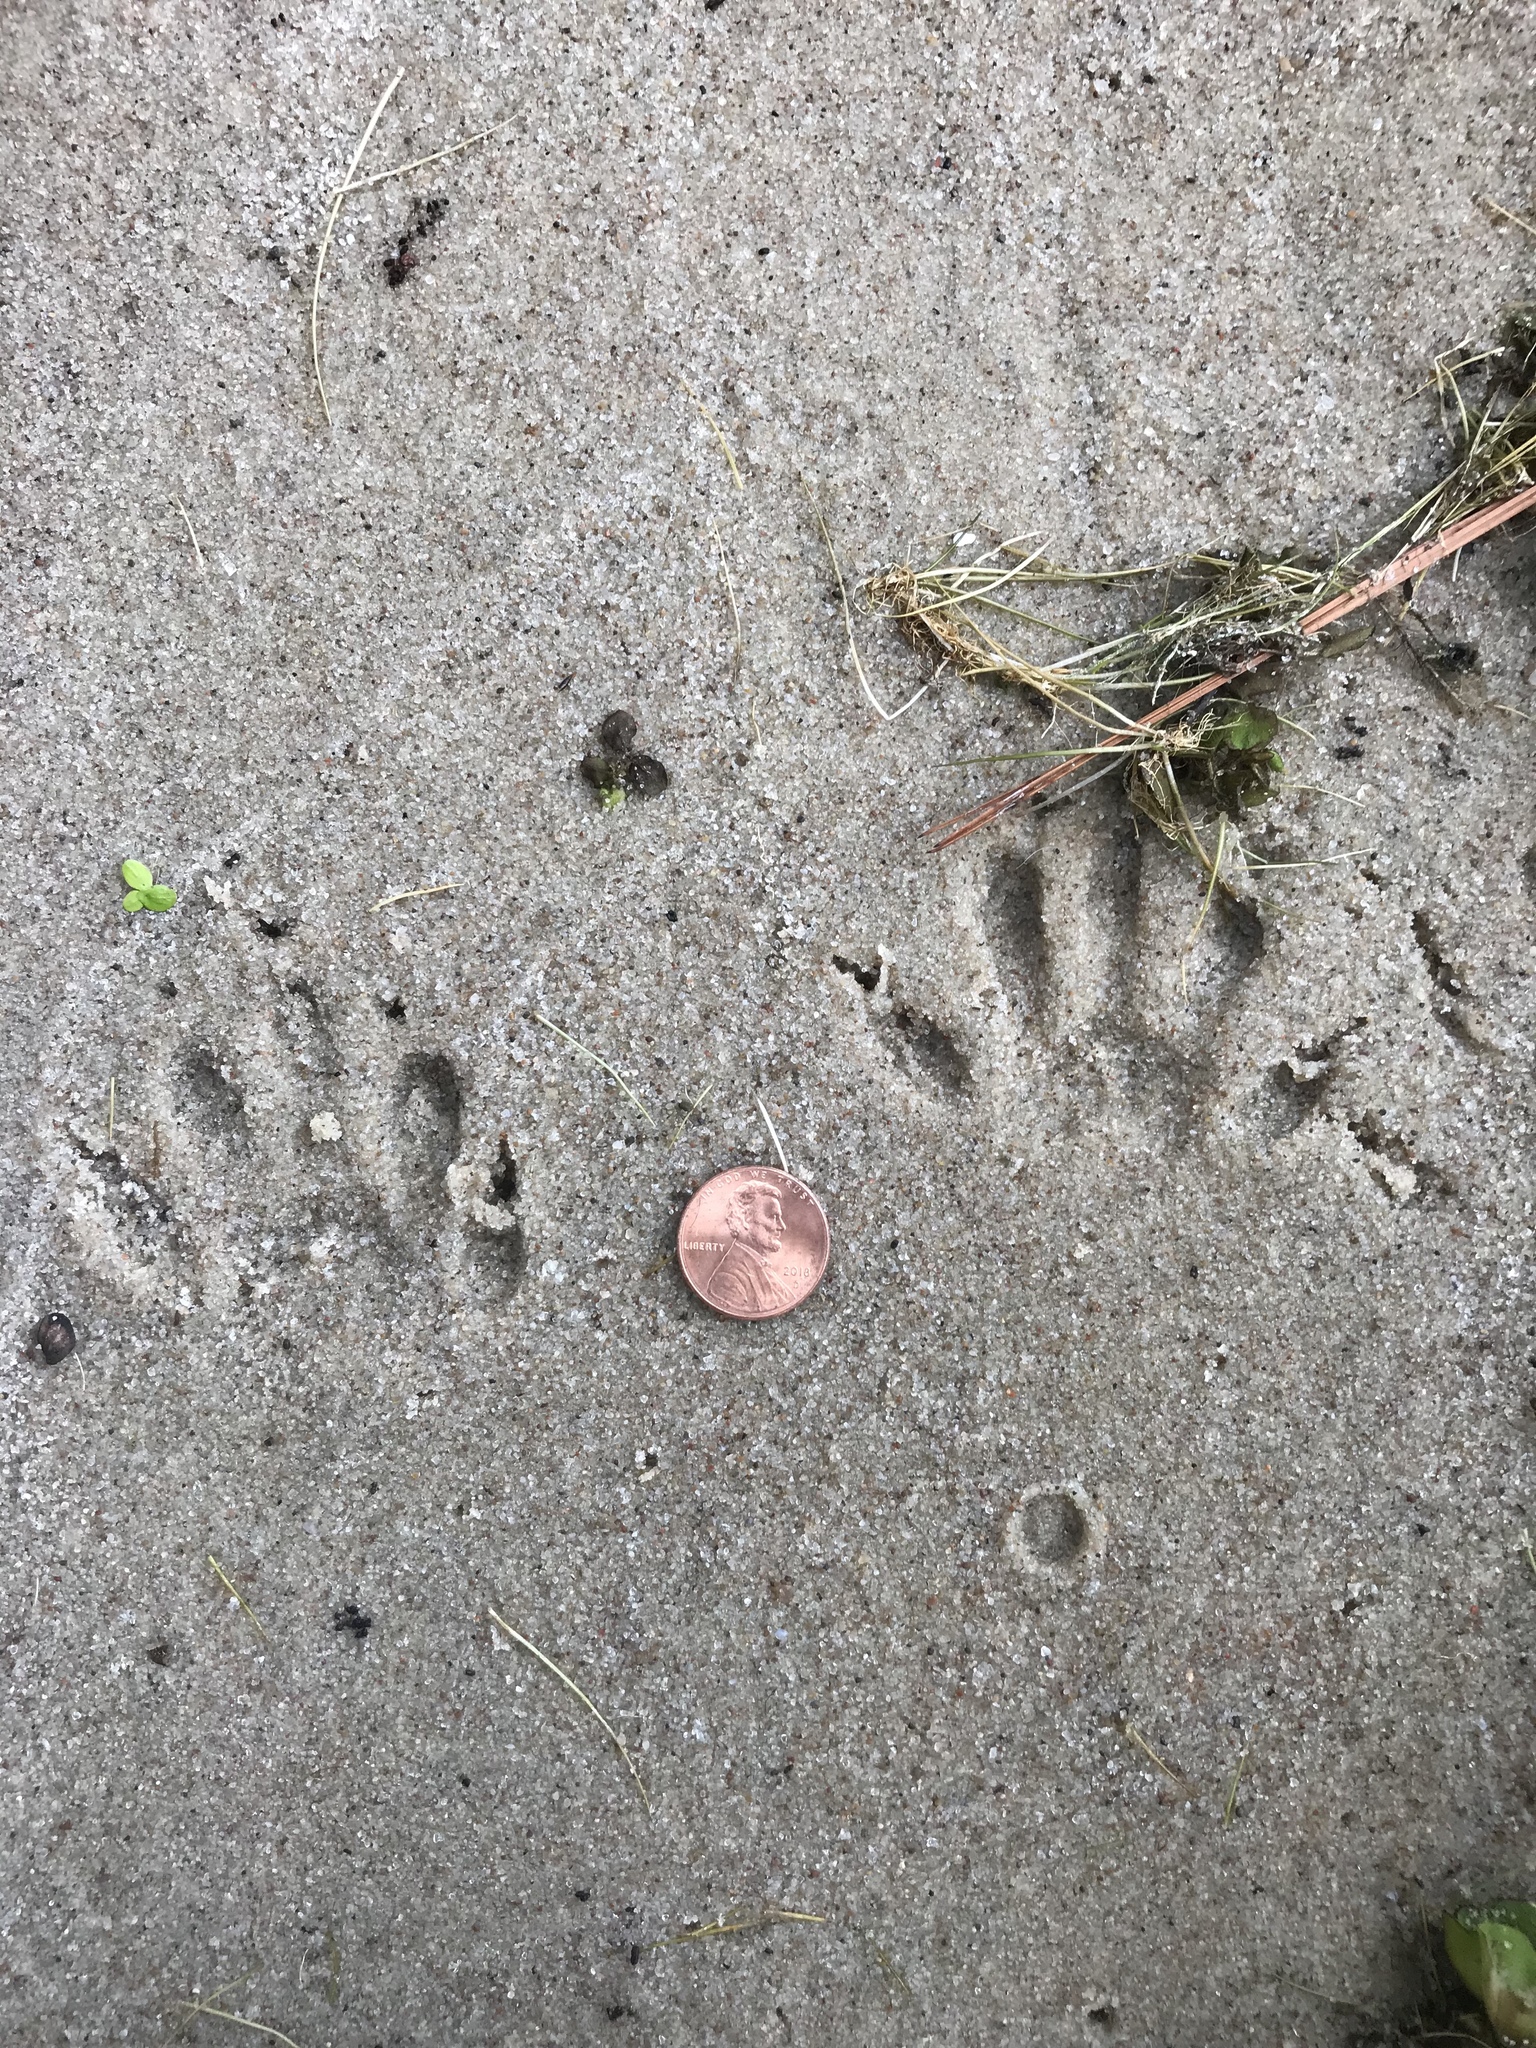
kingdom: Animalia
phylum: Chordata
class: Mammalia
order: Carnivora
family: Procyonidae
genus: Procyon
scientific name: Procyon lotor
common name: Raccoon
